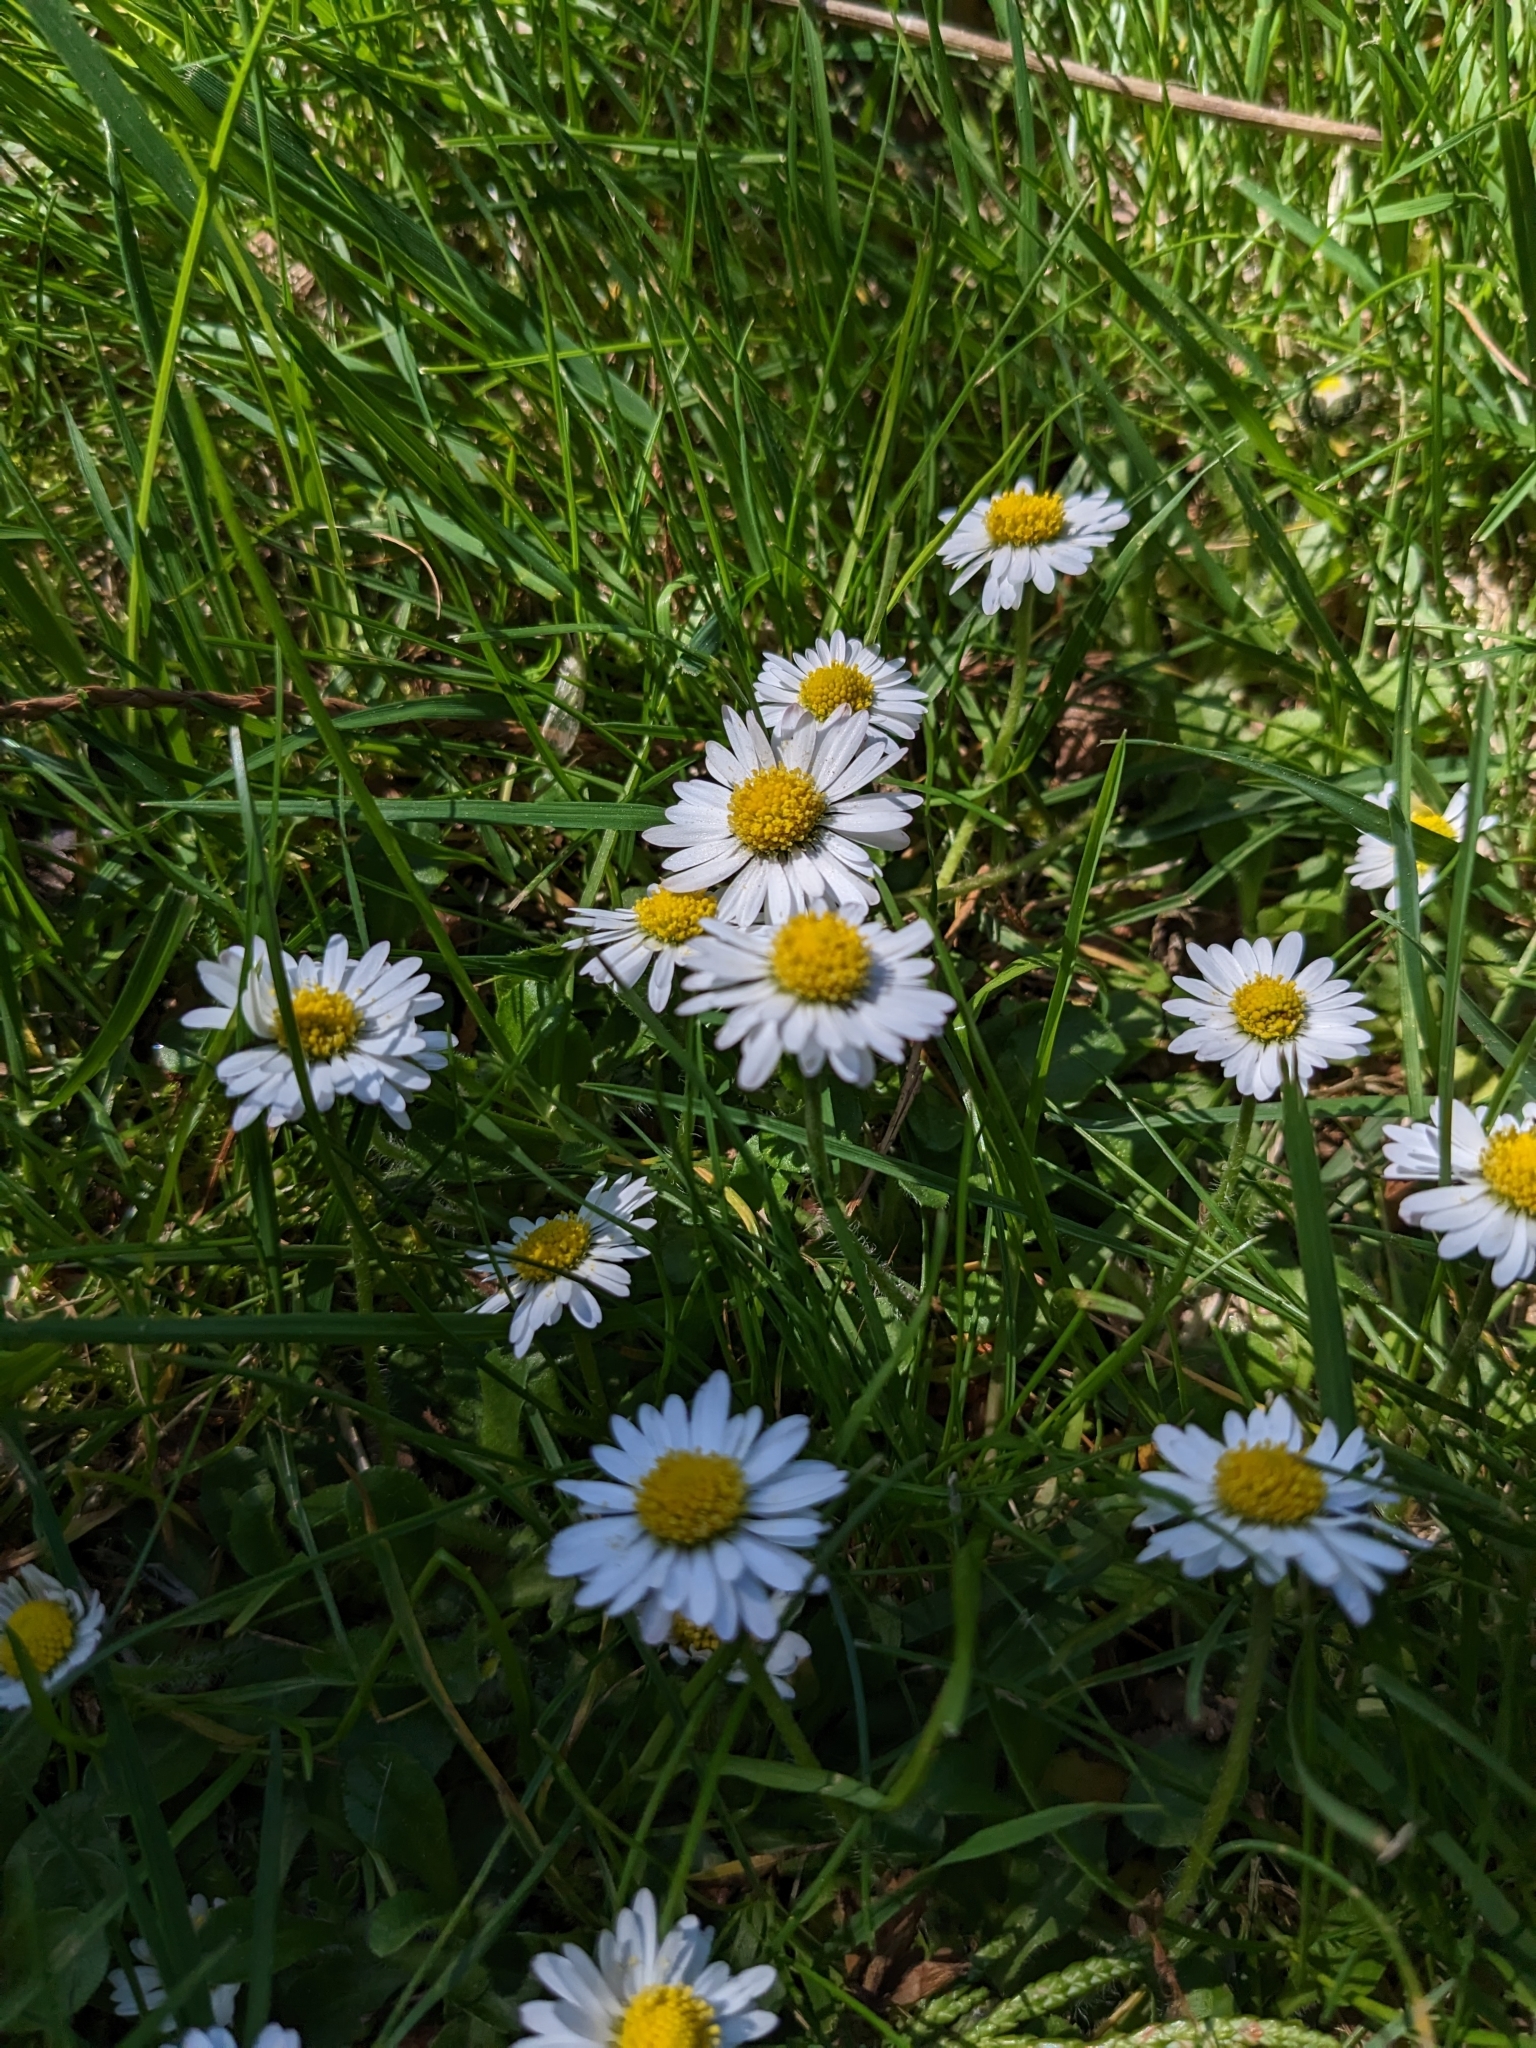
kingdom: Plantae
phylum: Tracheophyta
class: Magnoliopsida
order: Asterales
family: Asteraceae
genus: Bellis
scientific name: Bellis perennis
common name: Lawndaisy
